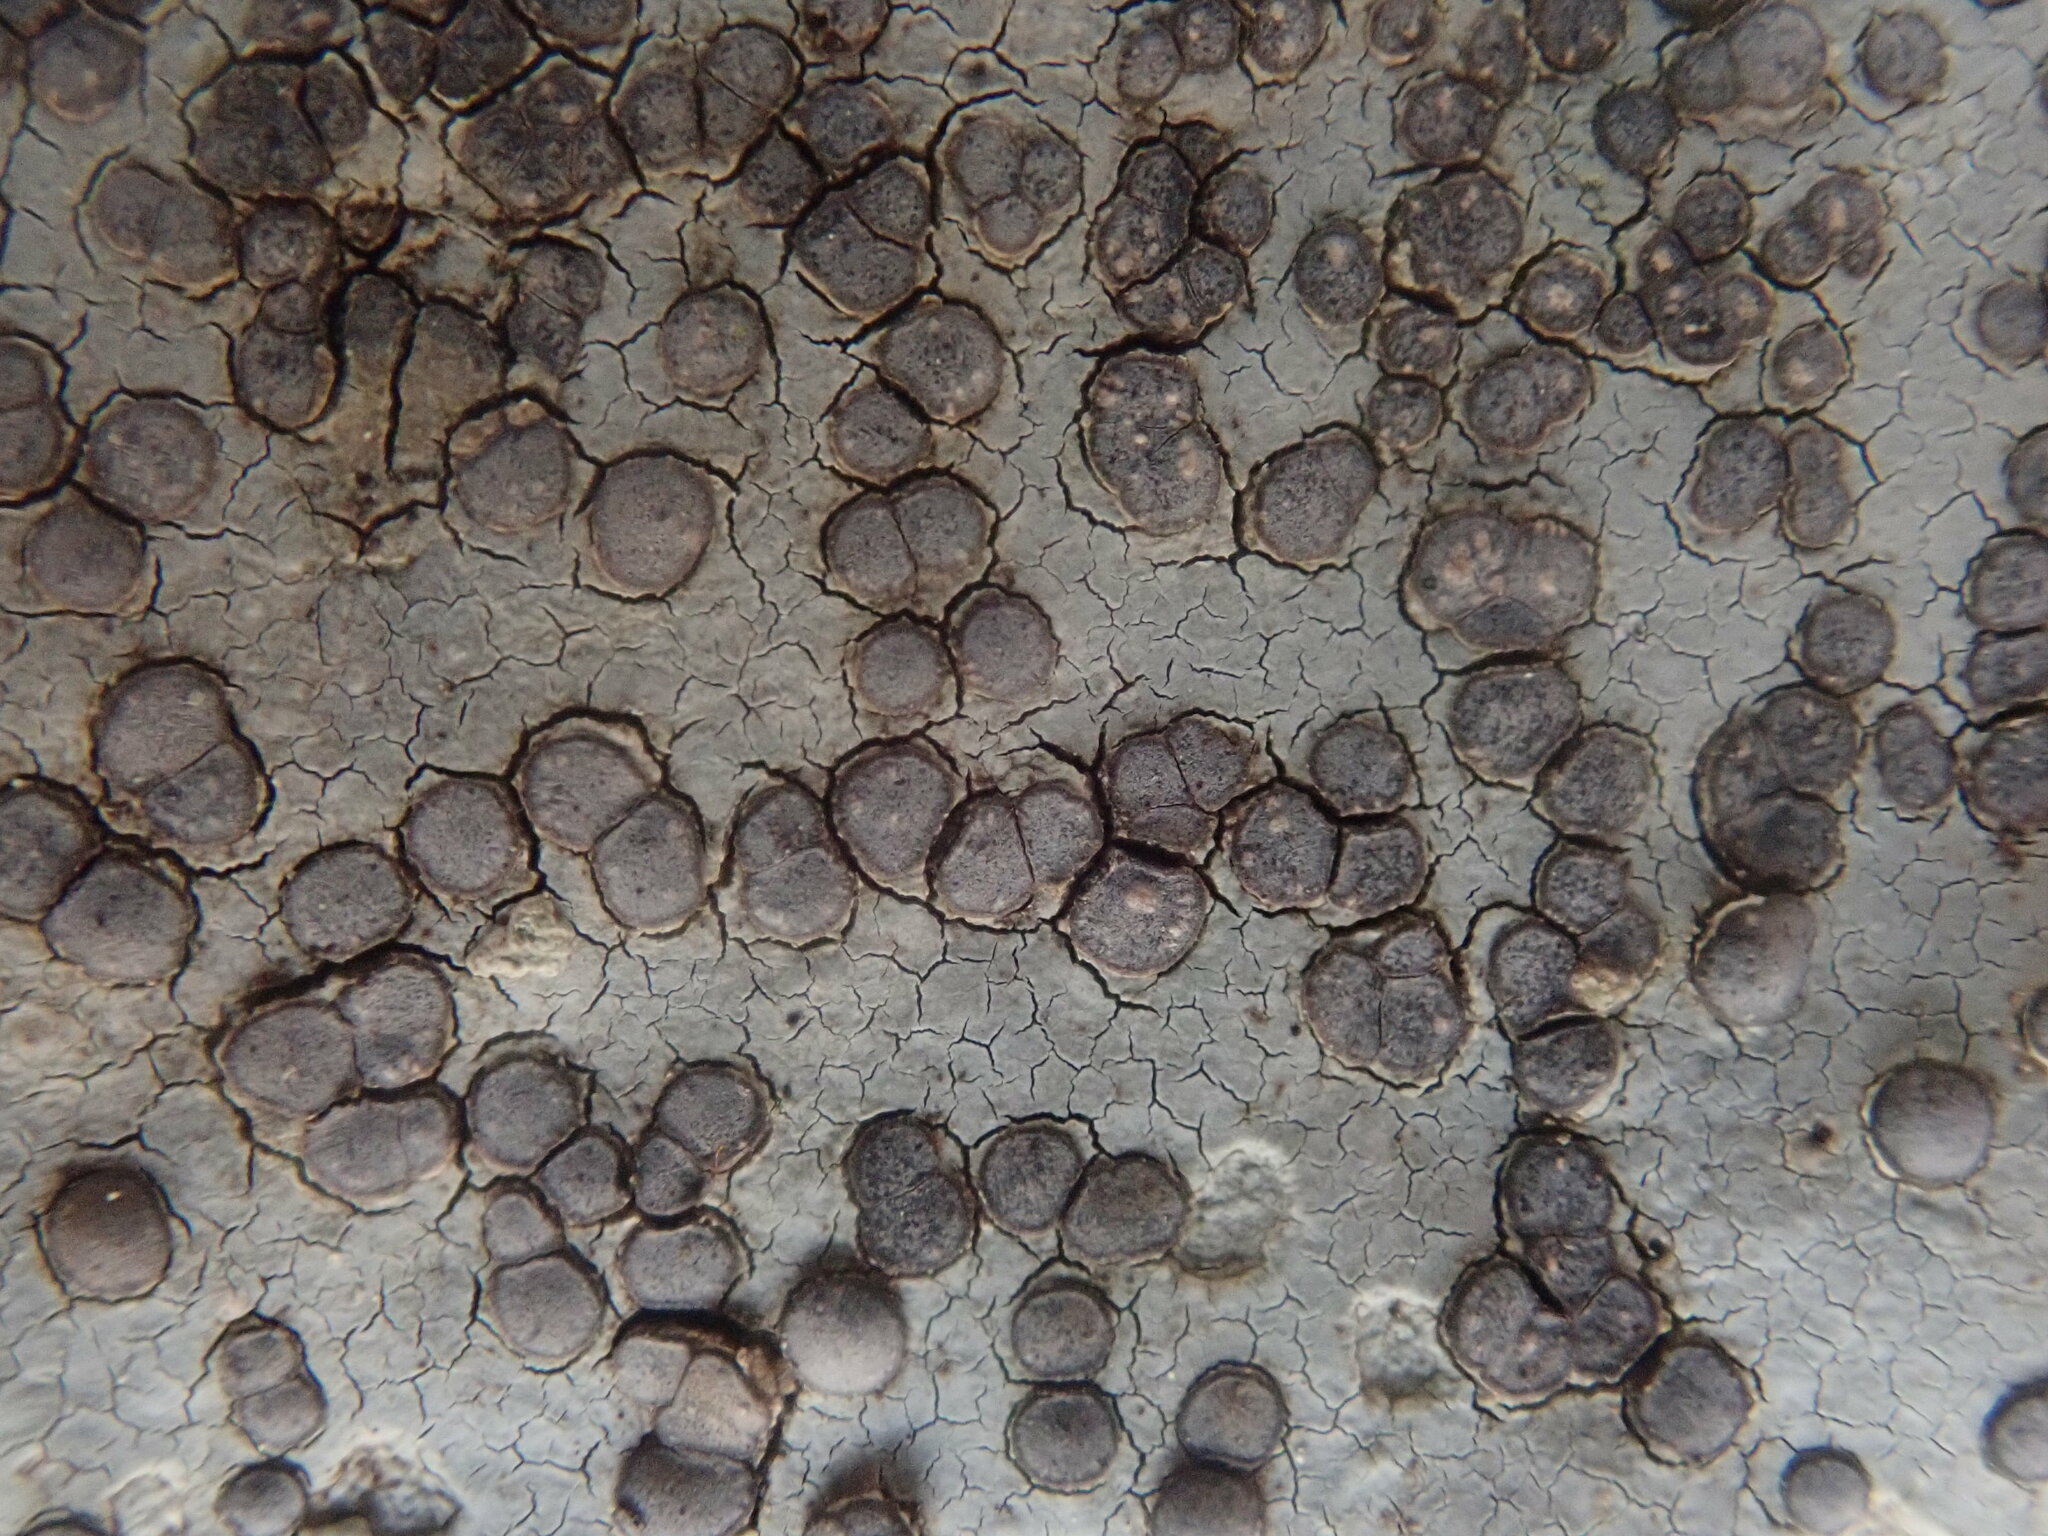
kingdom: Fungi
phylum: Ascomycota
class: Lecanoromycetes
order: Lecideales
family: Lecideaceae
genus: Porpidia
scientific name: Porpidia albocaerulescens
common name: Smokey-eyed boulder lichen
